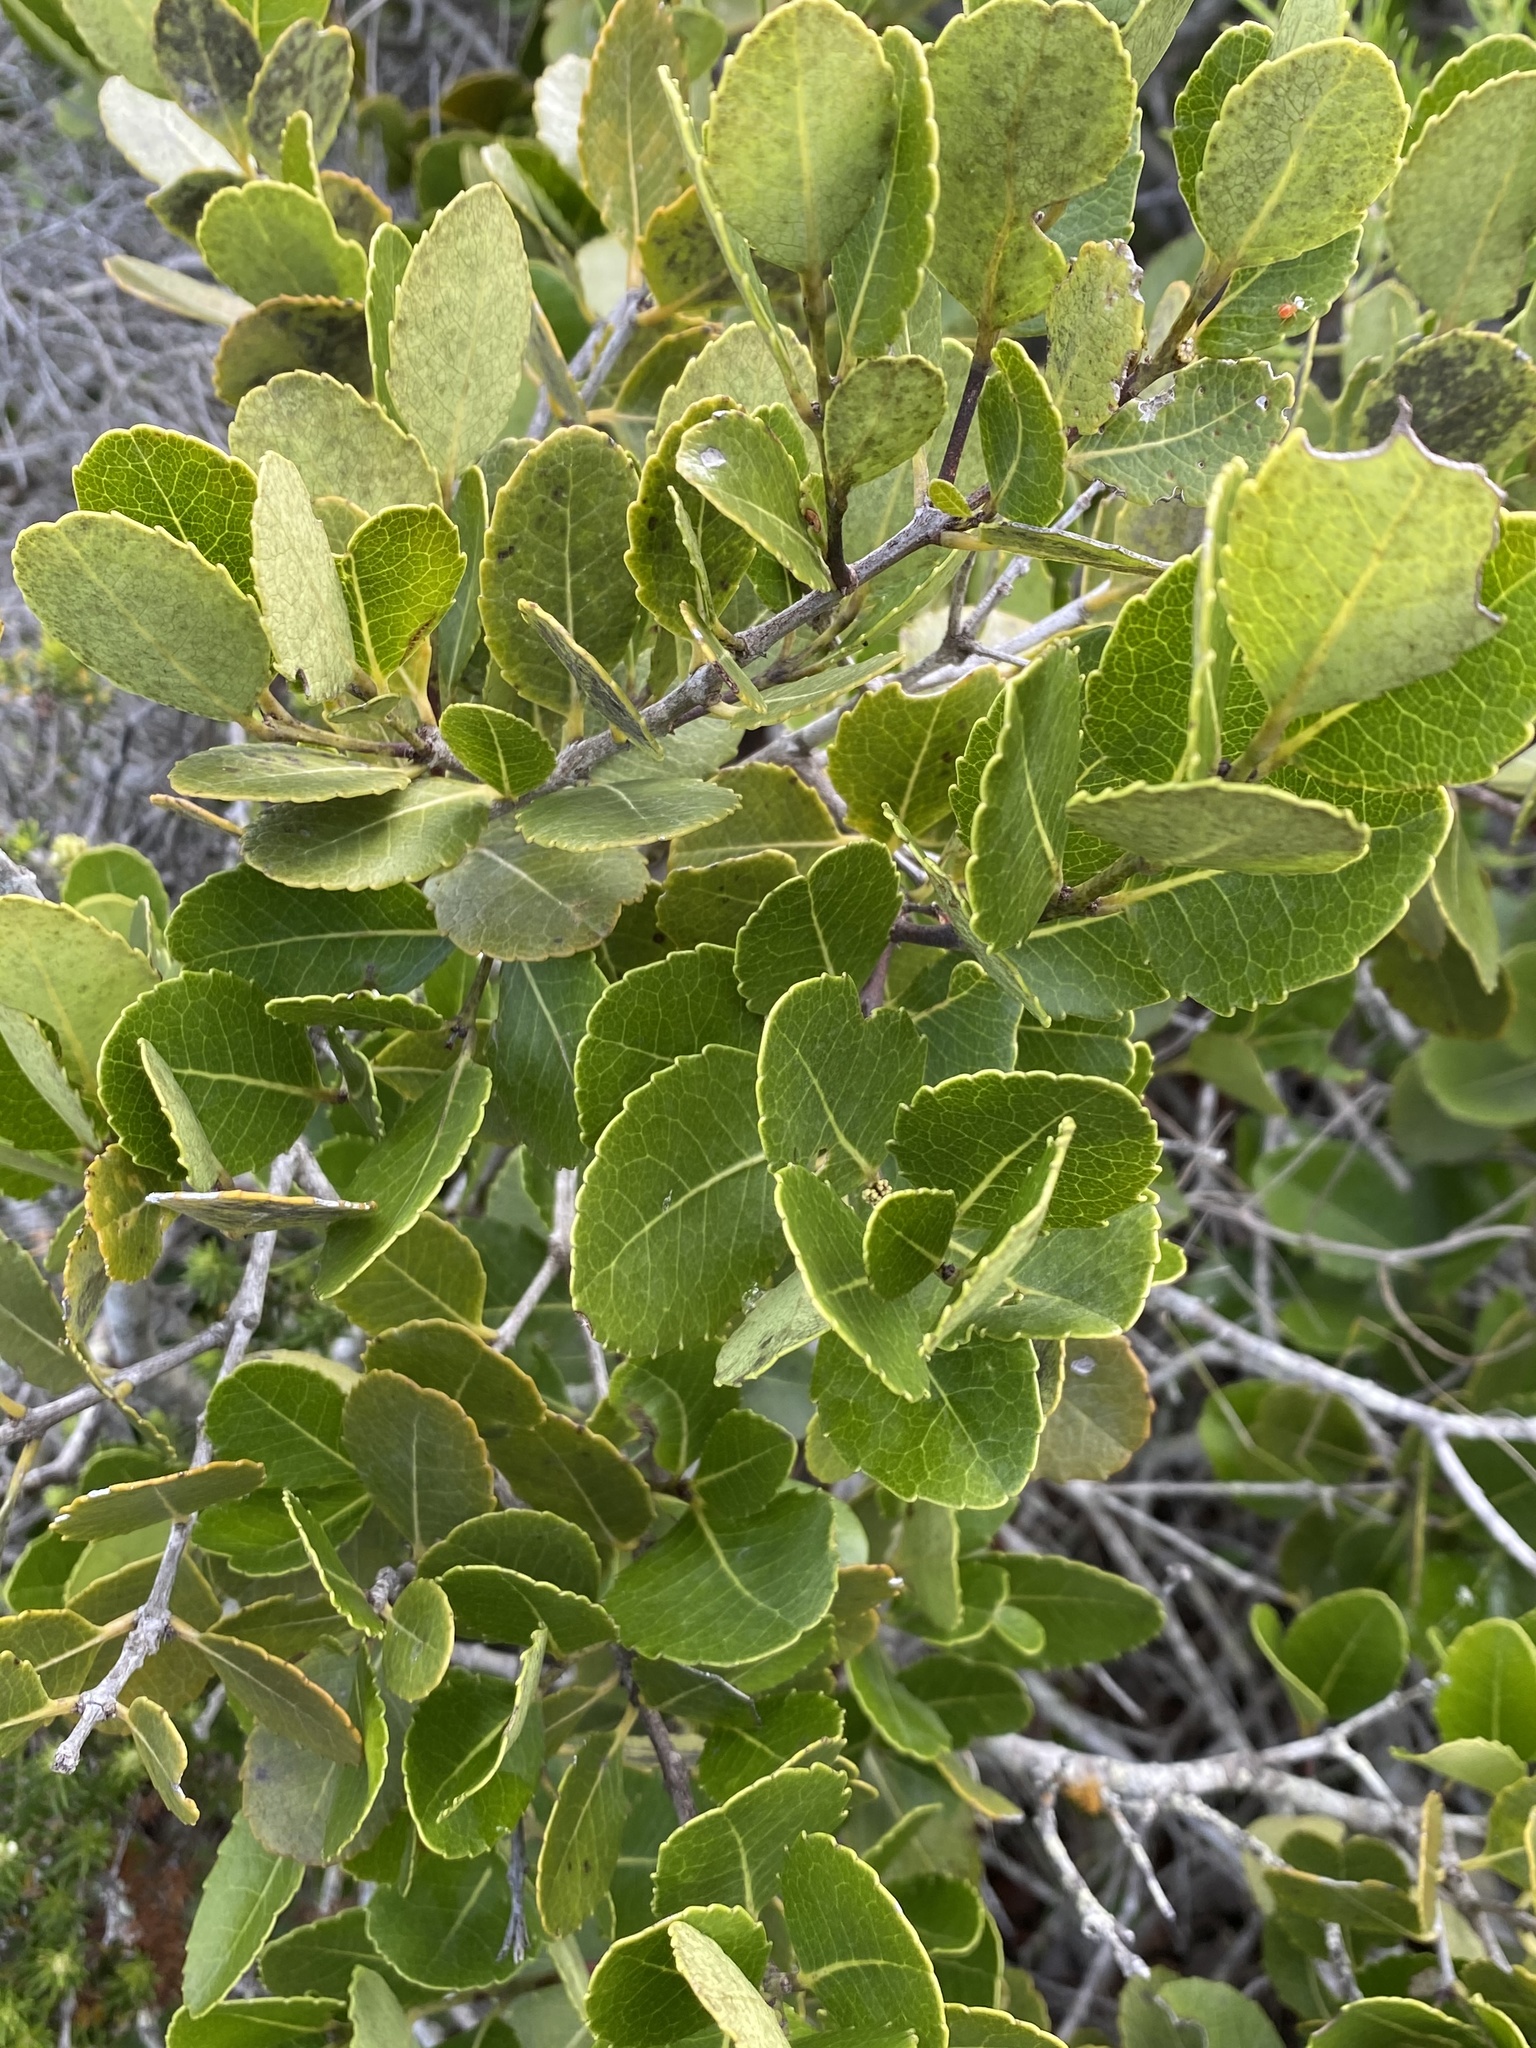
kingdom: Plantae
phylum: Tracheophyta
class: Magnoliopsida
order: Celastrales
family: Celastraceae
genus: Cassine
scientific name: Cassine peragua
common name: Cape saffron
